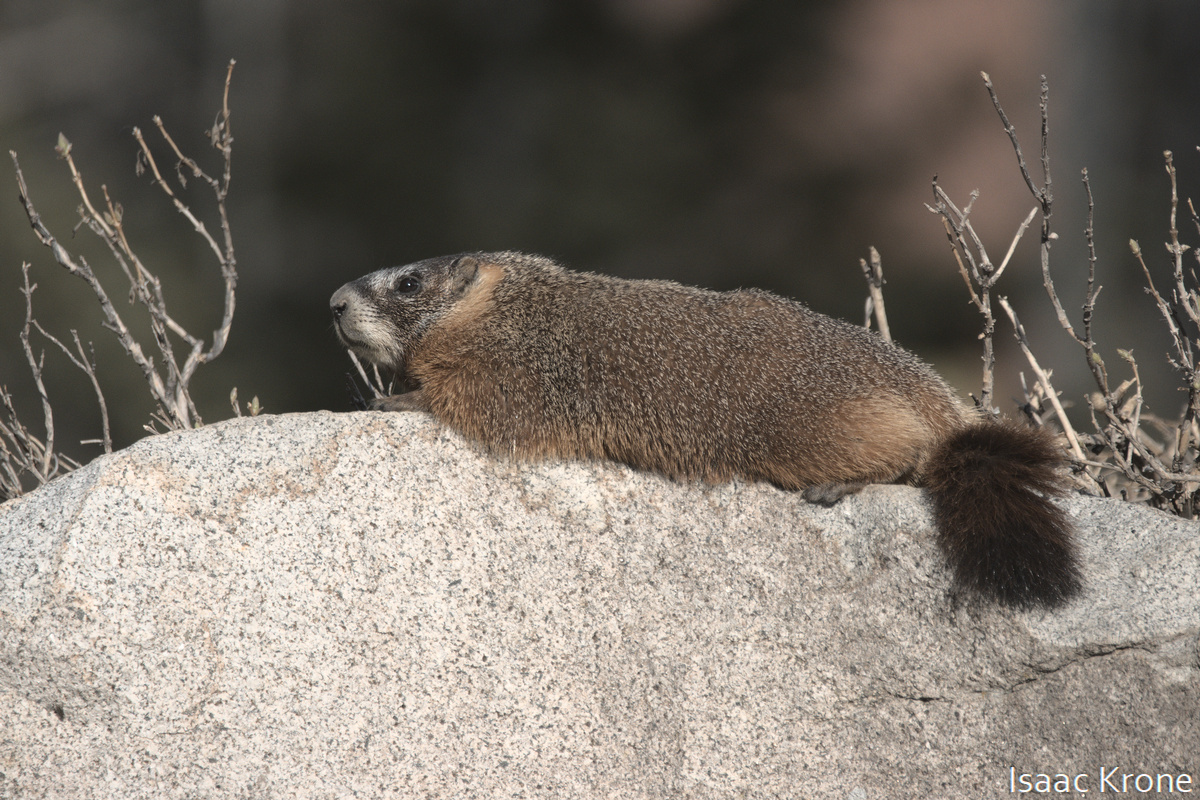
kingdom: Animalia
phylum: Chordata
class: Mammalia
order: Rodentia
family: Sciuridae
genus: Marmota
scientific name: Marmota flaviventris
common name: Yellow-bellied marmot
